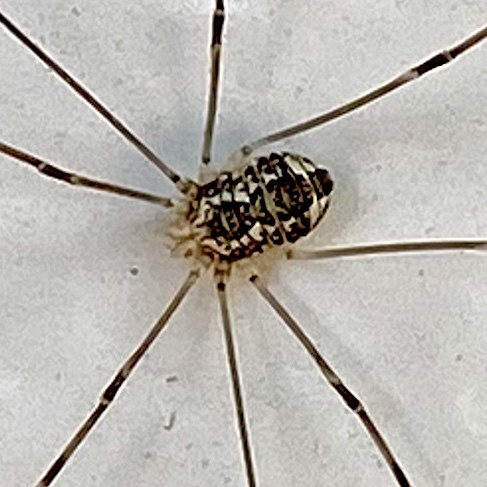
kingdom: Animalia
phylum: Arthropoda
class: Arachnida
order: Opiliones
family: Sclerosomatidae
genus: Leiobunum
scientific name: Leiobunum vittatum
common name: Eastern harvestman
